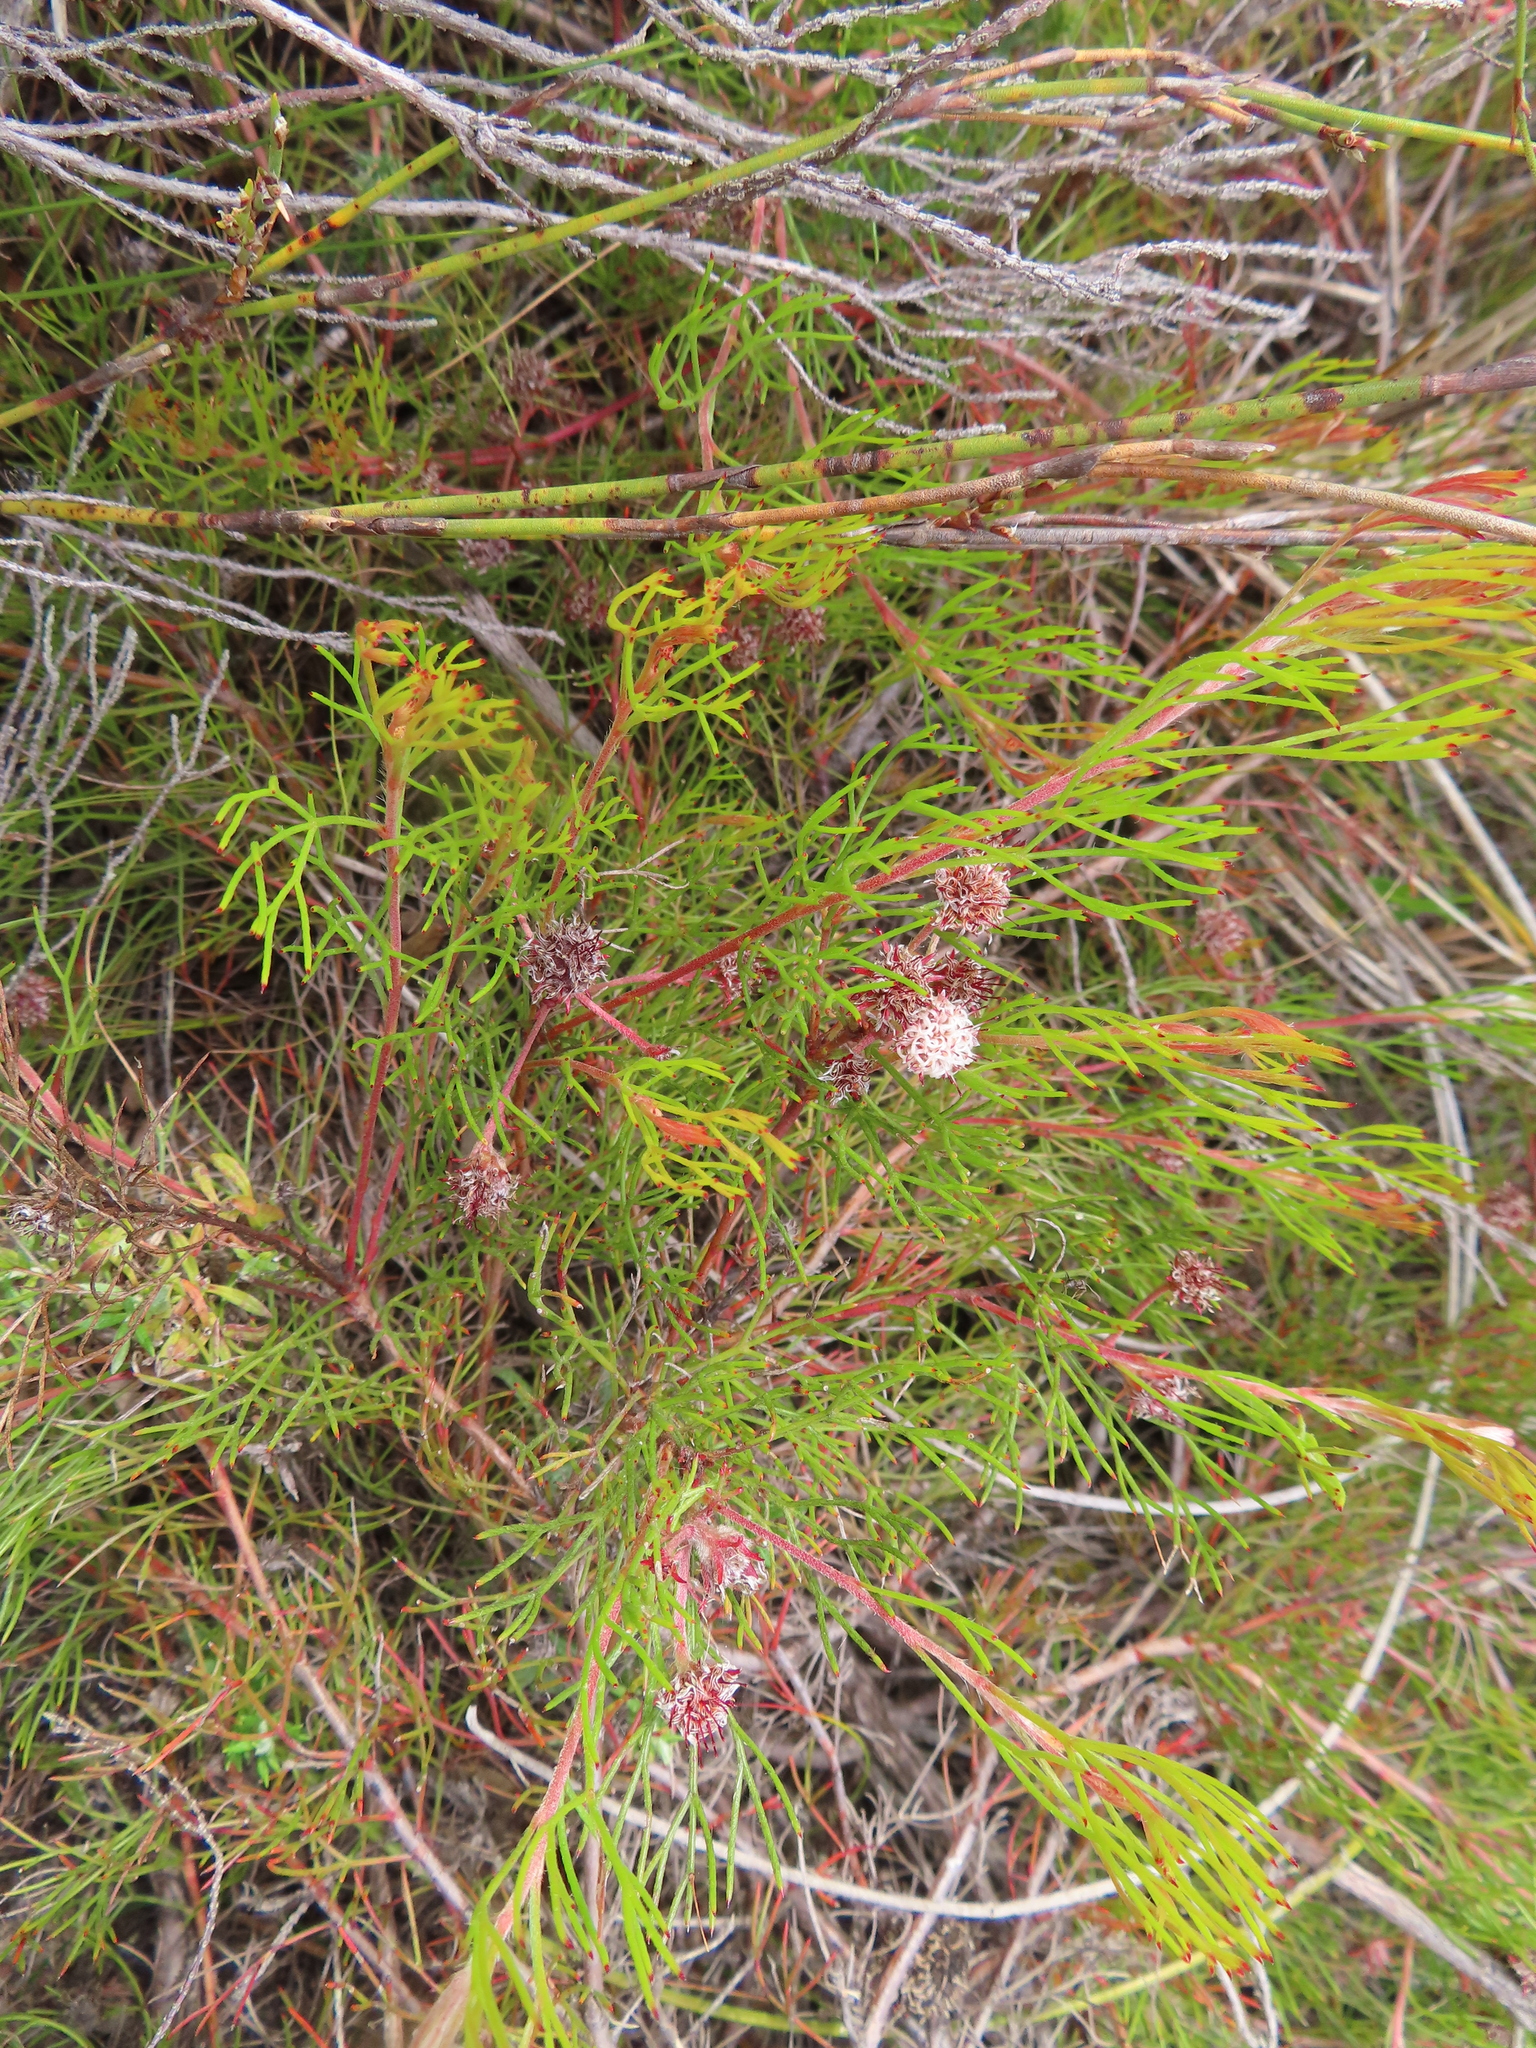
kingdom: Plantae
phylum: Tracheophyta
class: Magnoliopsida
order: Proteales
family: Proteaceae
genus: Serruria
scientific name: Serruria fasciflora
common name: Common pin spiderhead
